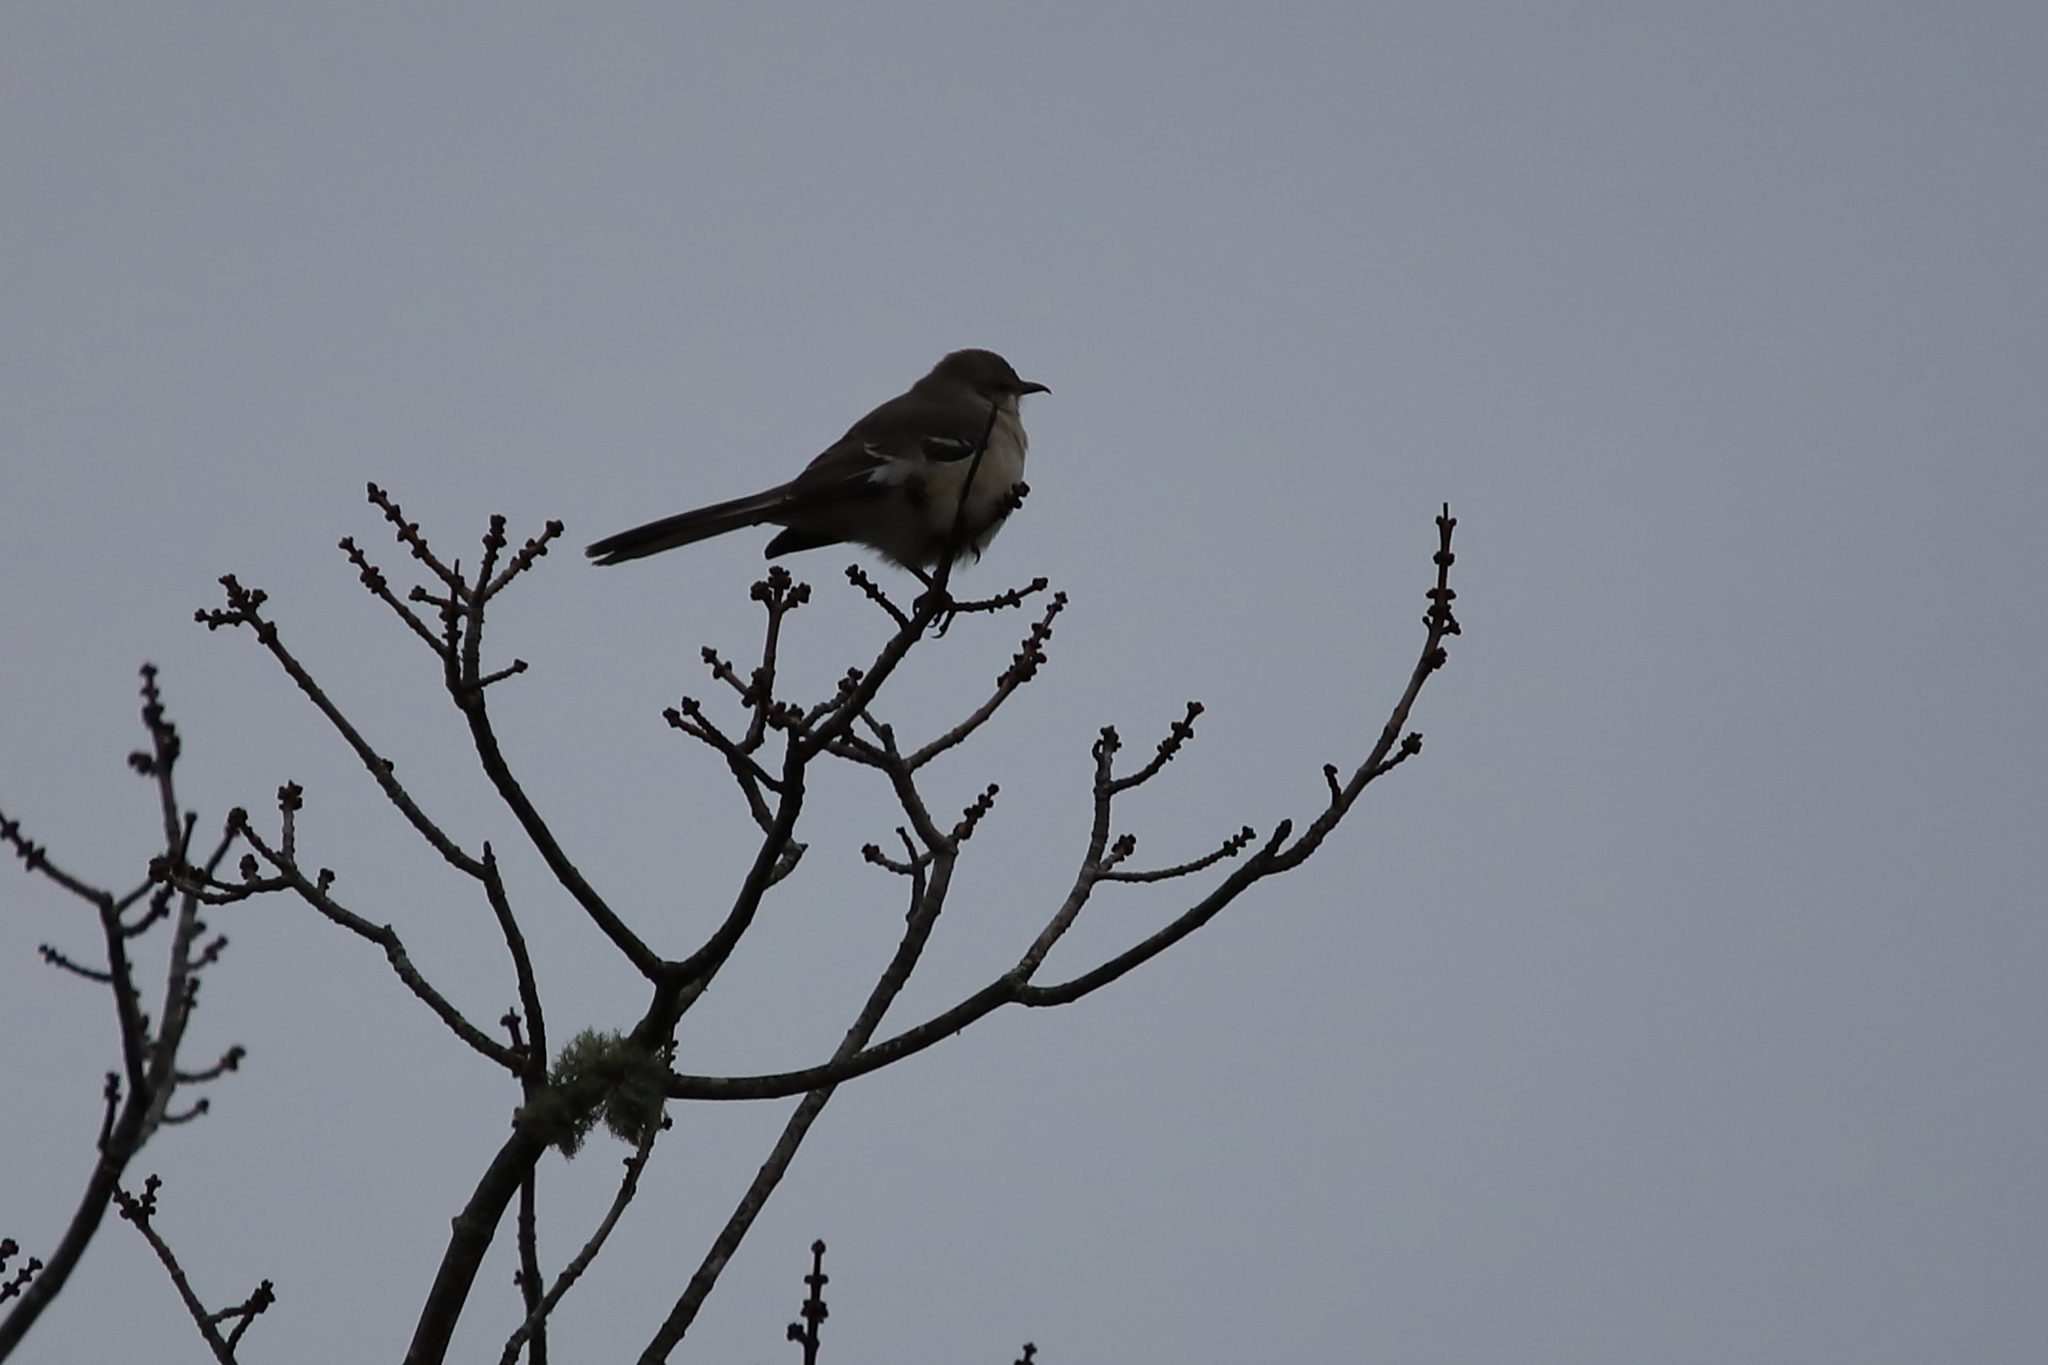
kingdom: Animalia
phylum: Chordata
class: Aves
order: Passeriformes
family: Mimidae
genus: Mimus
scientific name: Mimus polyglottos
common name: Northern mockingbird
